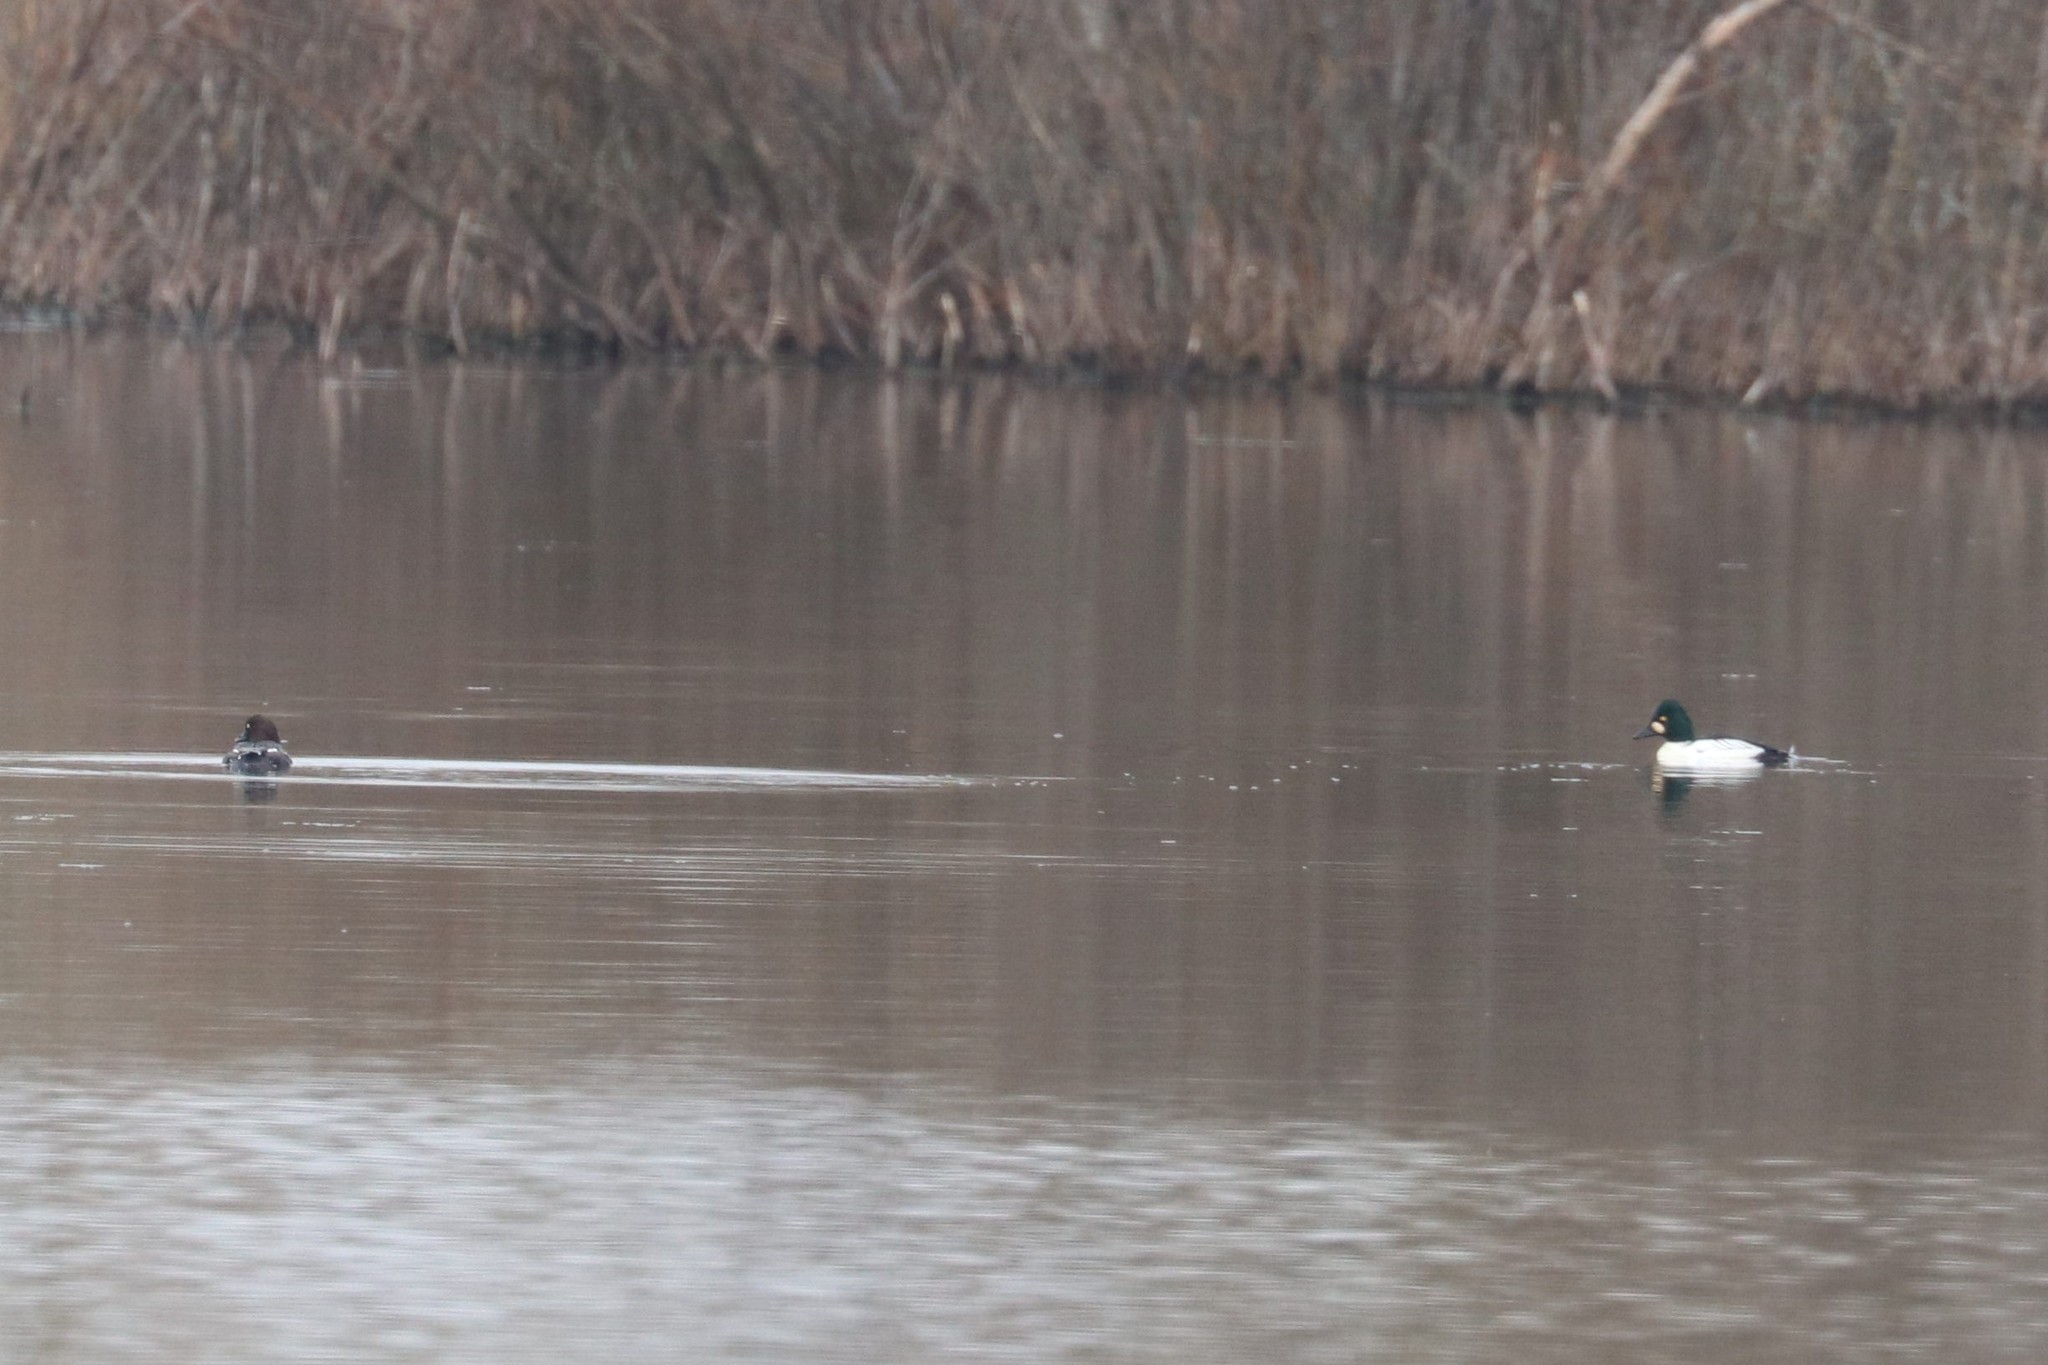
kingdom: Animalia
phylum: Chordata
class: Aves
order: Anseriformes
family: Anatidae
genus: Bucephala
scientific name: Bucephala clangula
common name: Common goldeneye
